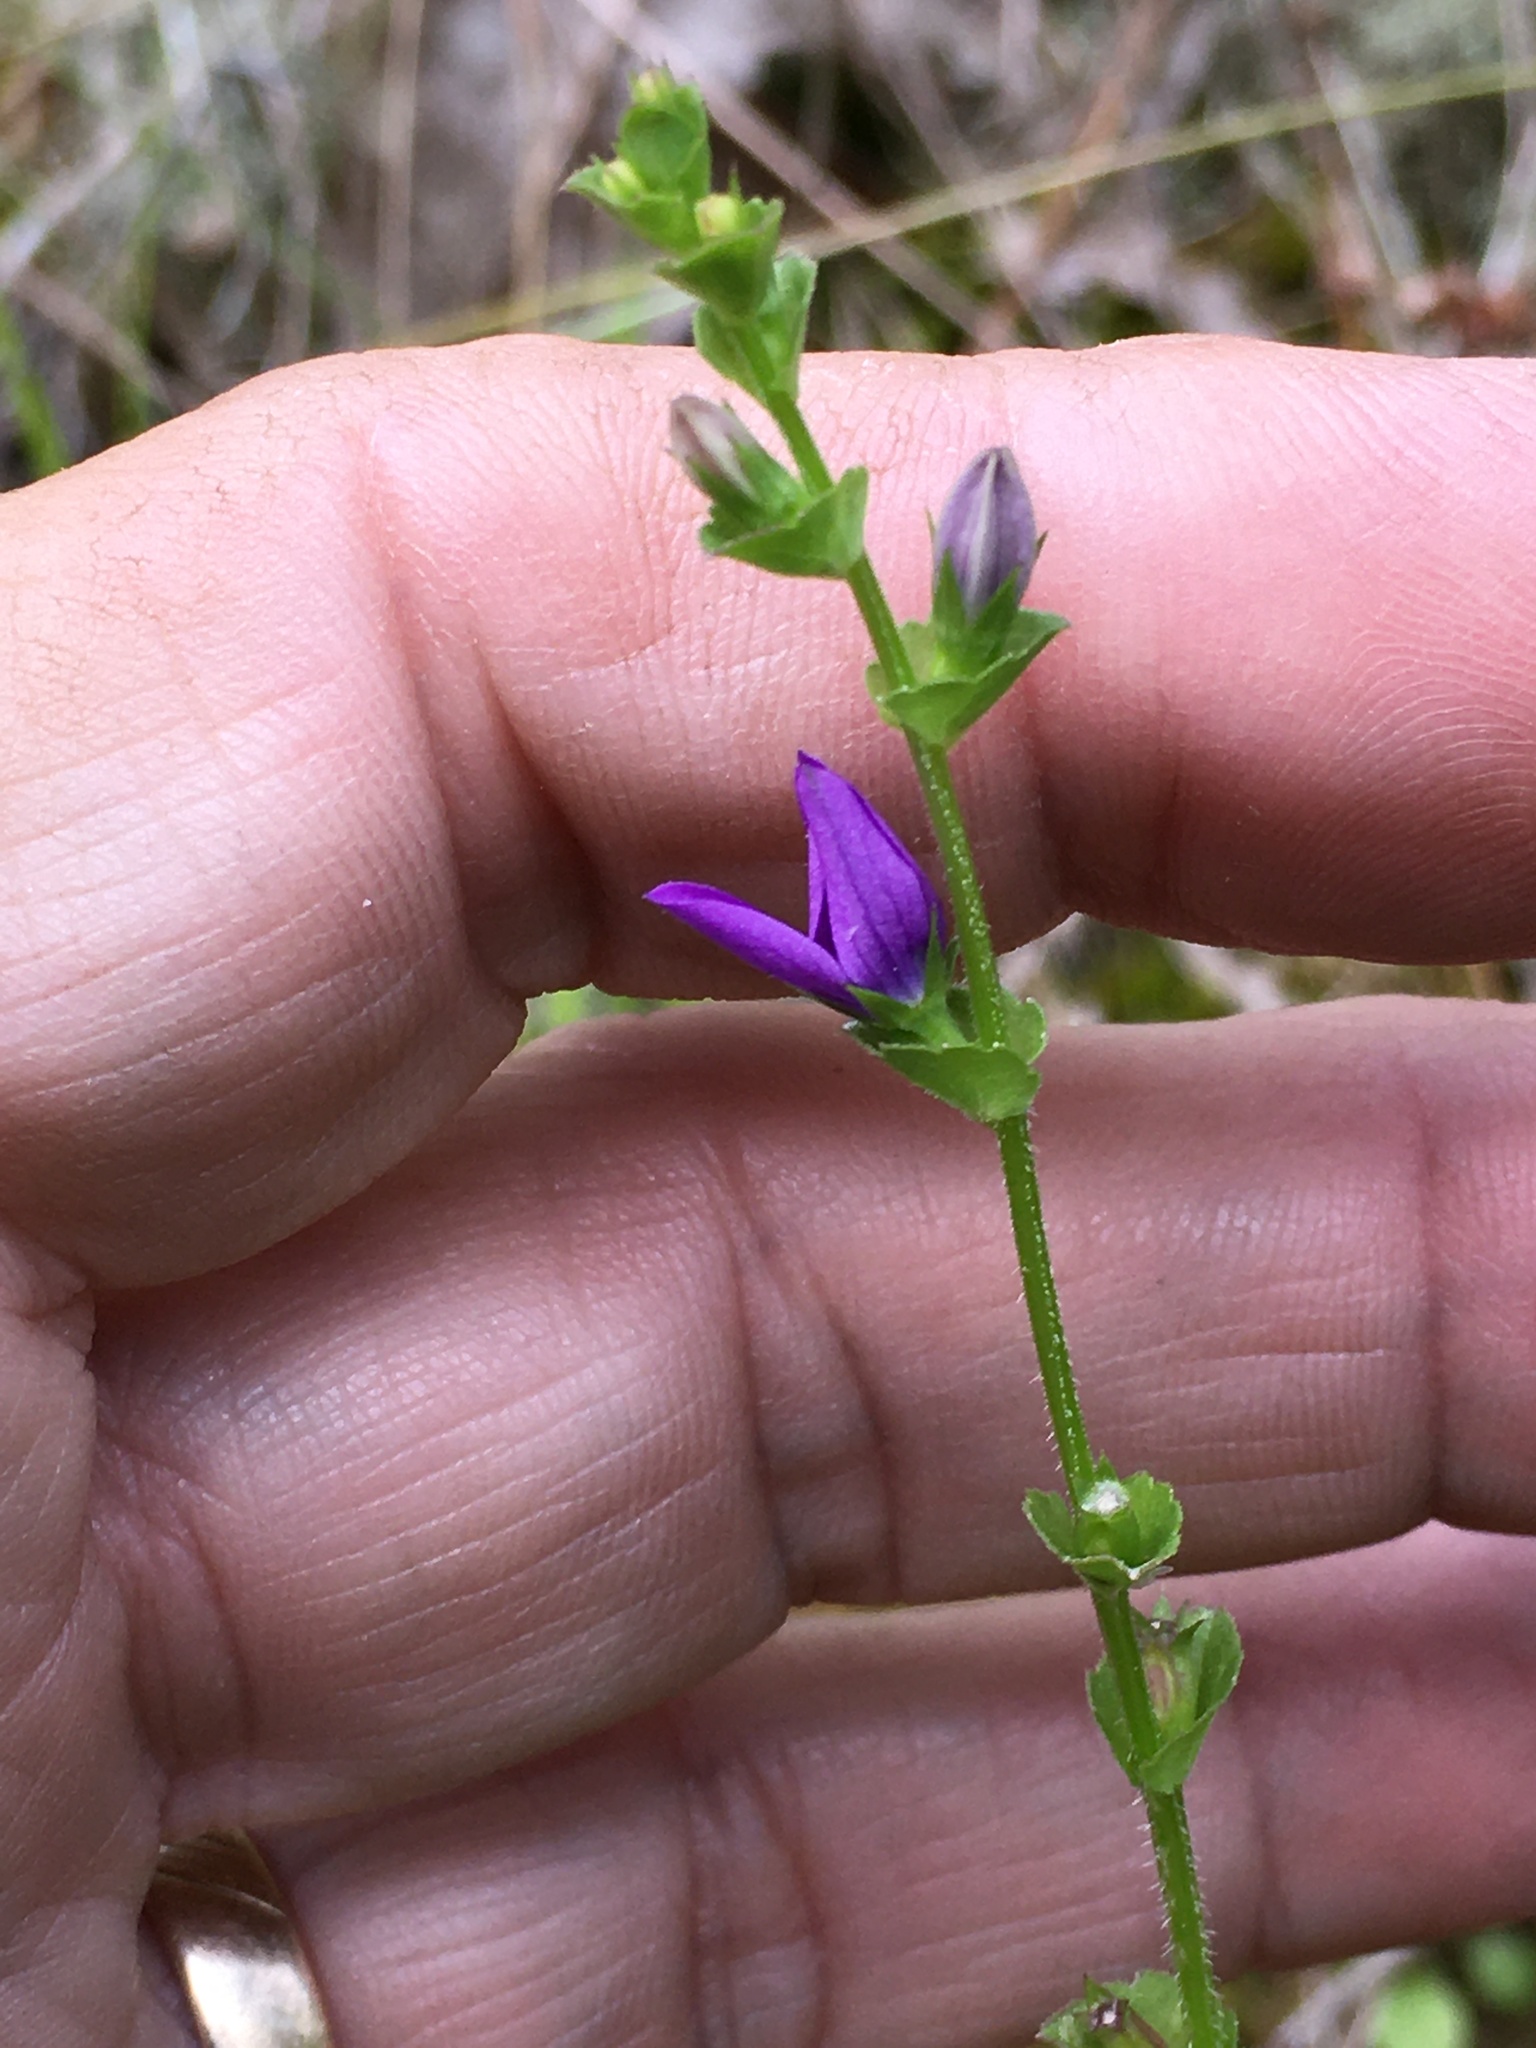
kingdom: Plantae
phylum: Tracheophyta
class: Magnoliopsida
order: Asterales
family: Campanulaceae
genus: Triodanis
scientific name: Triodanis perfoliata
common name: Clasping venus' looking-glass
